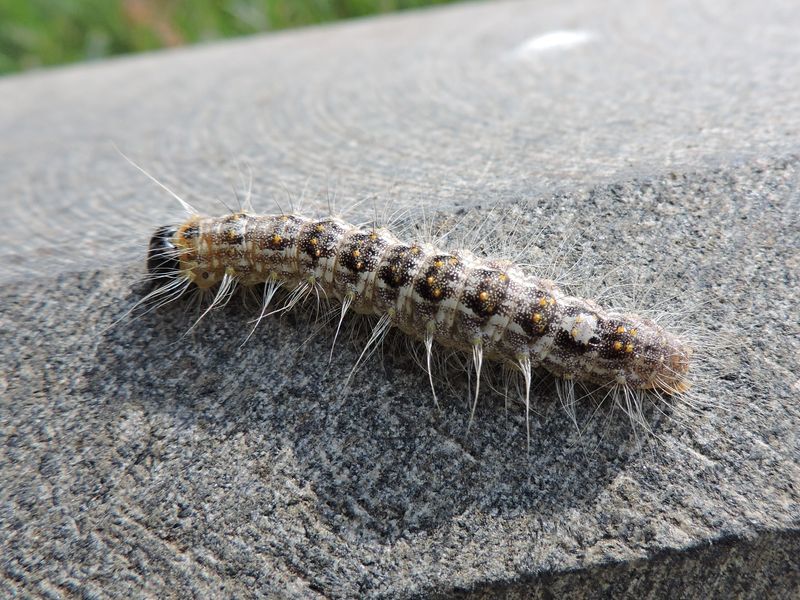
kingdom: Animalia
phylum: Arthropoda
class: Insecta
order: Lepidoptera
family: Noctuidae
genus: Acronicta
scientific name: Acronicta megacephala
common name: Poplar grey
